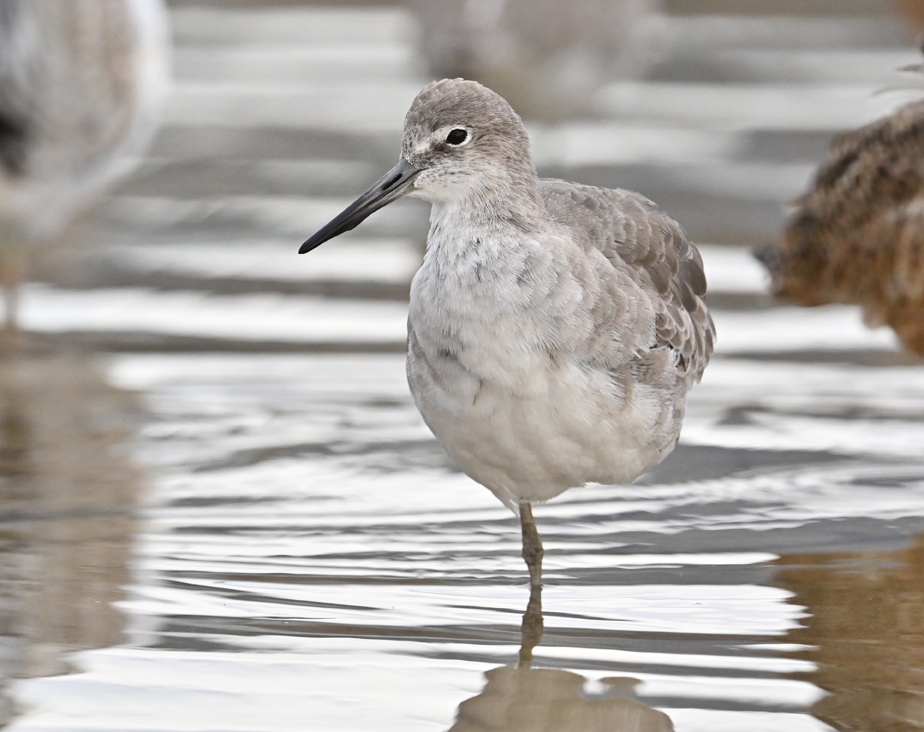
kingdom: Animalia
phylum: Chordata
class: Aves
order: Charadriiformes
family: Scolopacidae
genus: Tringa
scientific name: Tringa semipalmata
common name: Willet
